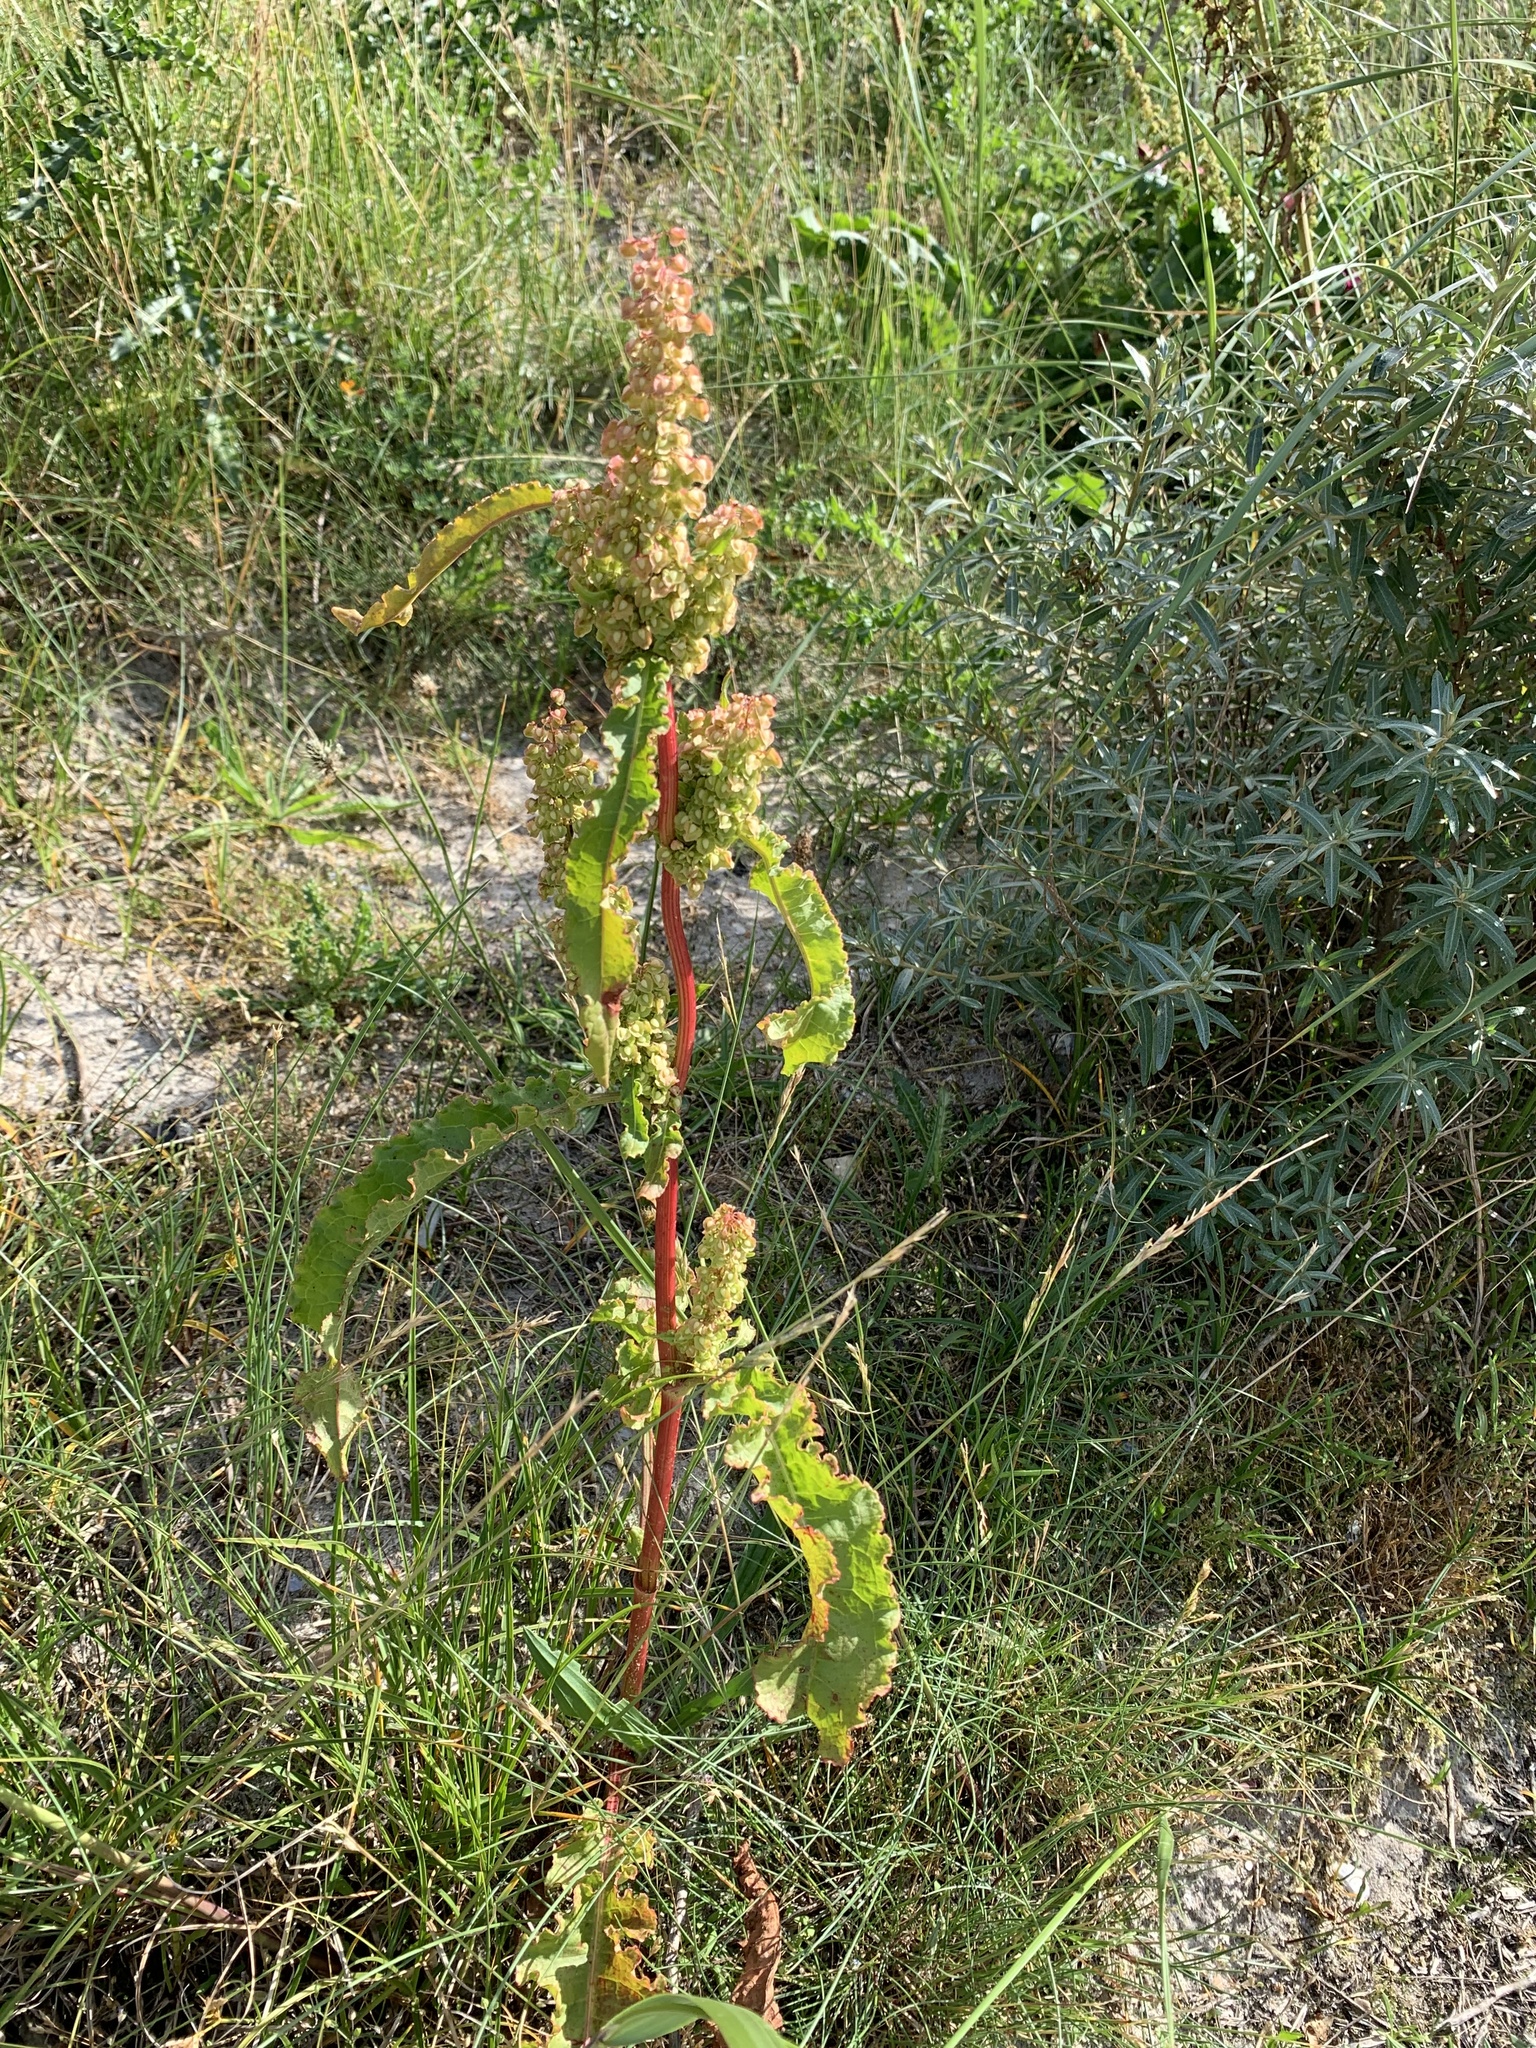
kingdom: Plantae
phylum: Tracheophyta
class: Magnoliopsida
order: Caryophyllales
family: Polygonaceae
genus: Rumex
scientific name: Rumex crispus
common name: Curled dock
